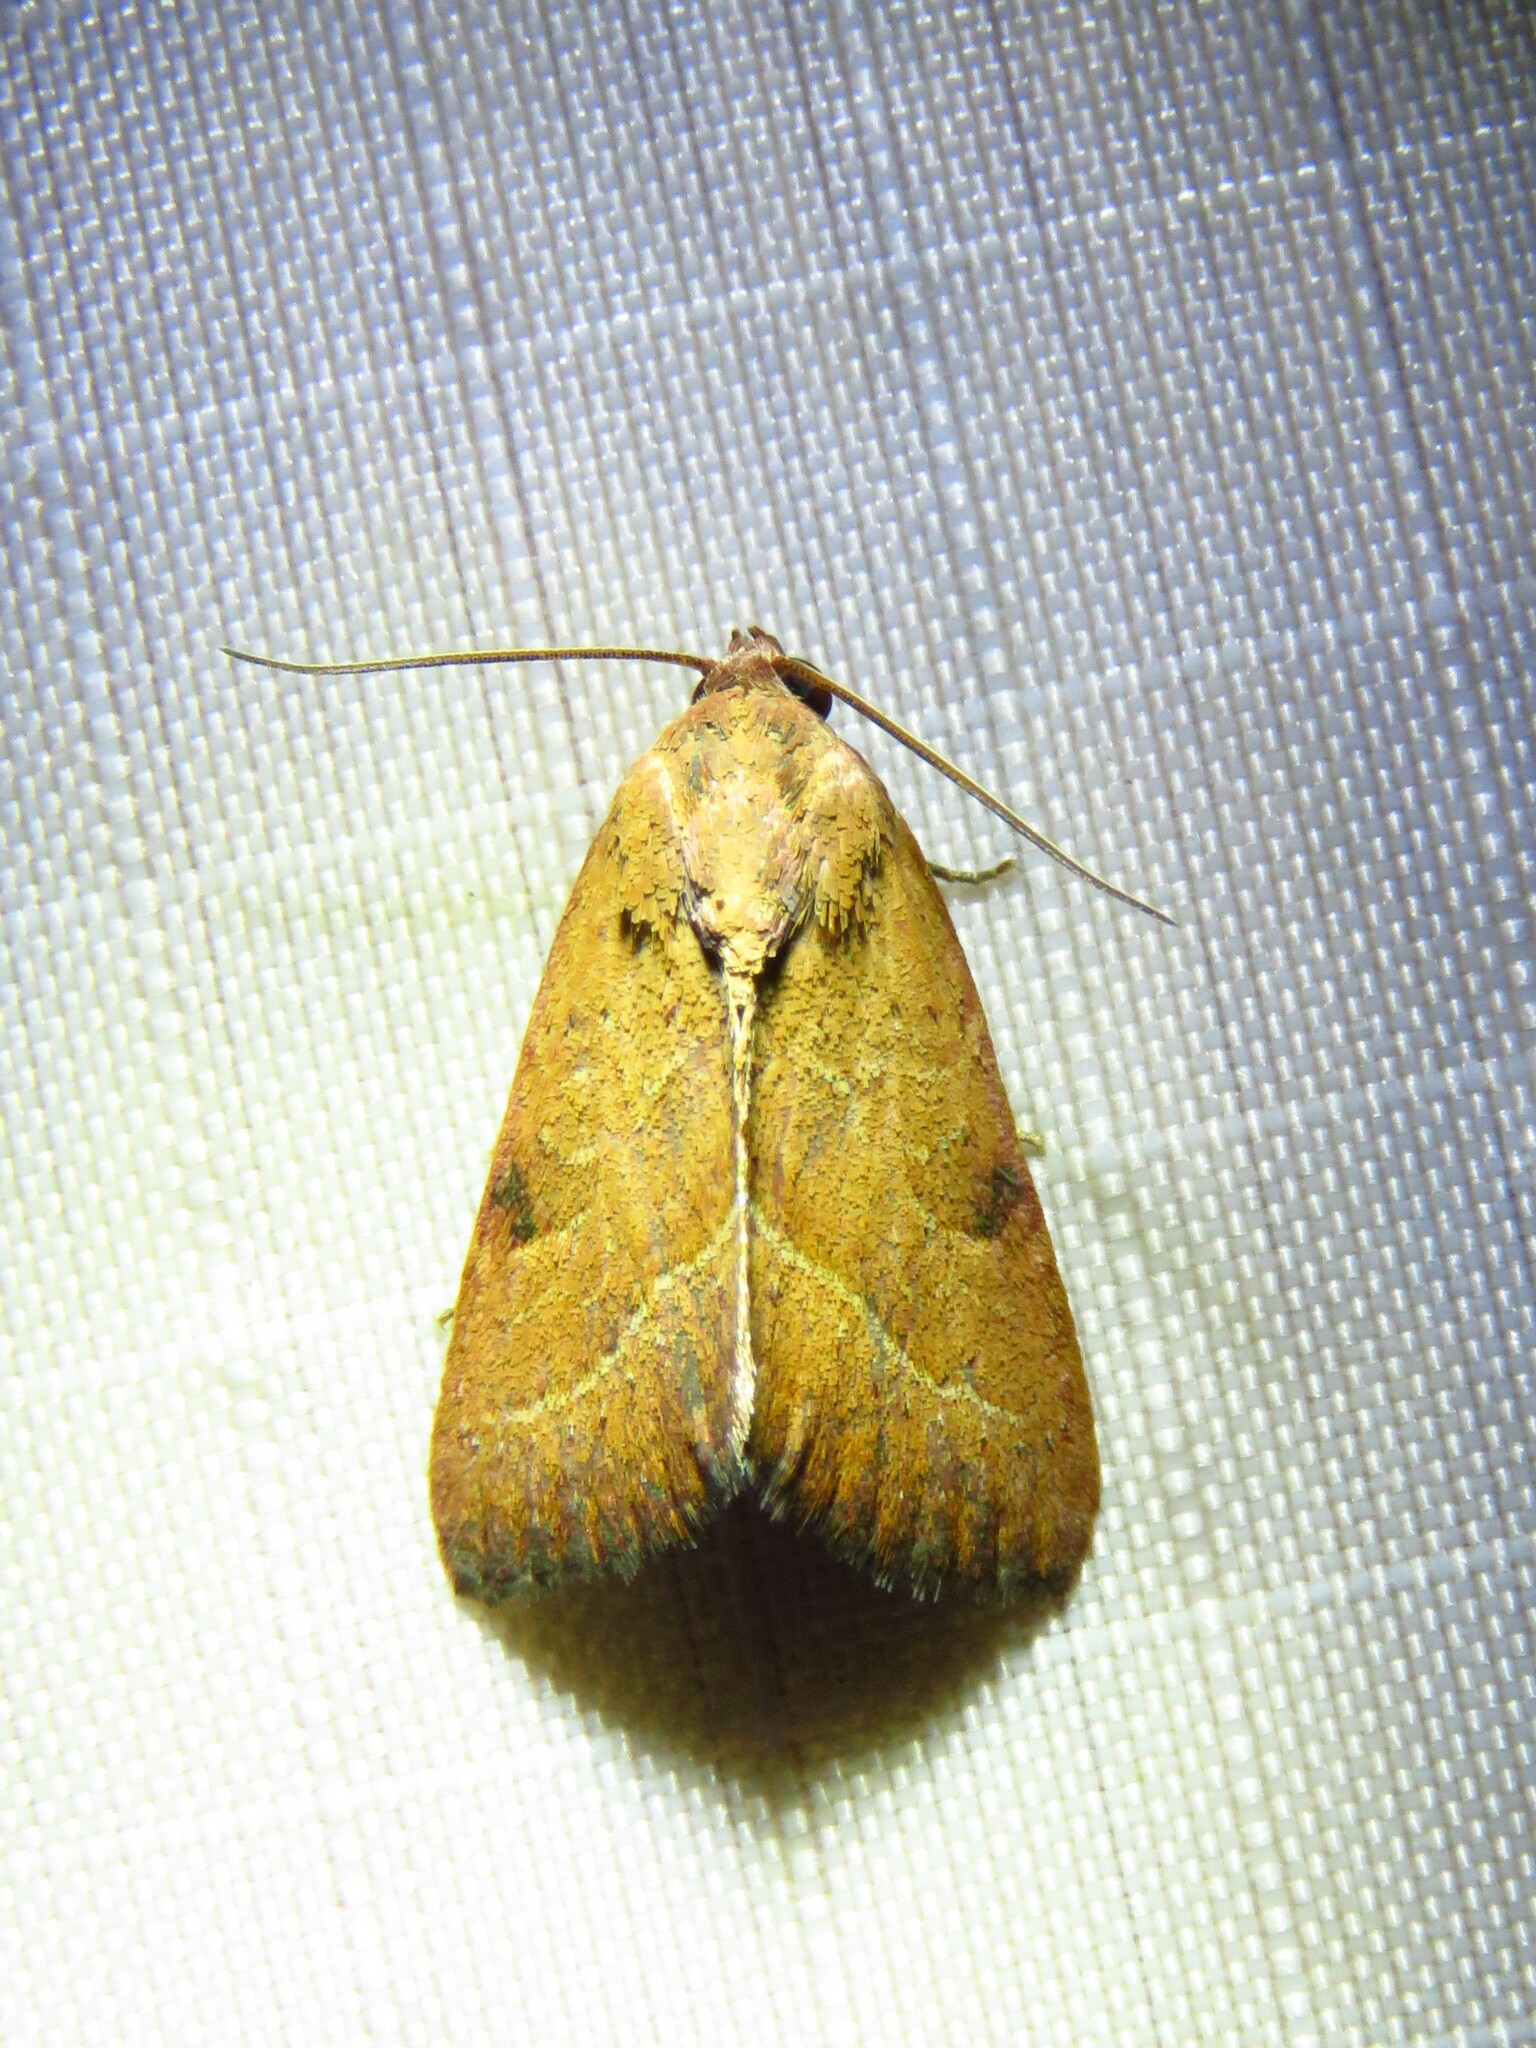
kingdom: Animalia
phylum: Arthropoda
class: Insecta
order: Lepidoptera
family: Noctuidae
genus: Galgula
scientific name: Galgula partita
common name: Wedgeling
